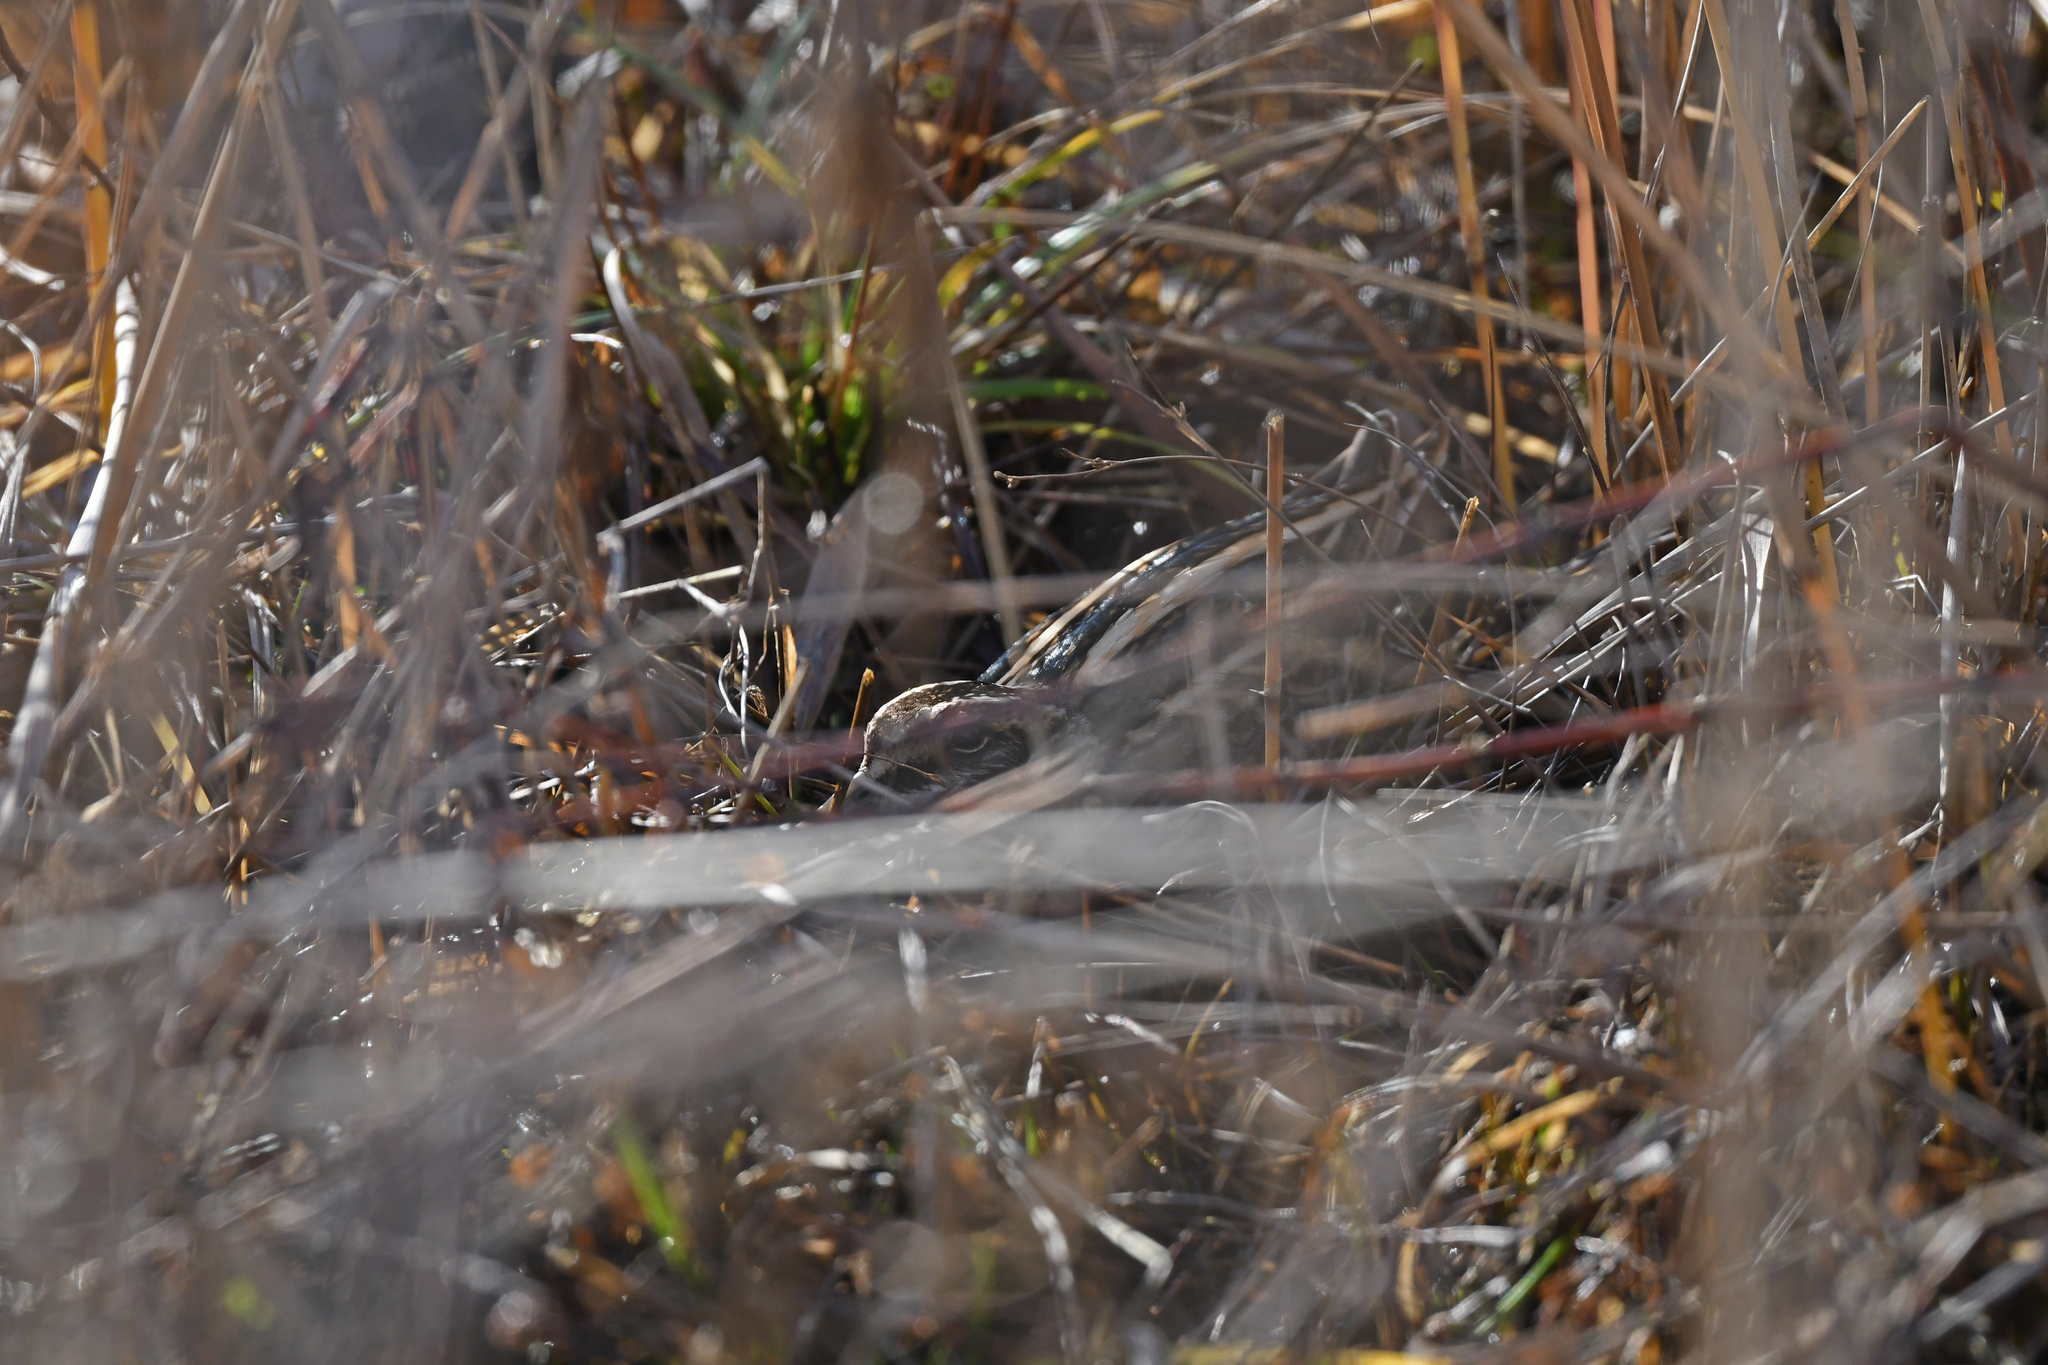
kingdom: Animalia
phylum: Chordata
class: Aves
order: Charadriiformes
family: Scolopacidae
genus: Lymnocryptes
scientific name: Lymnocryptes minimus
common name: Jack snipe
